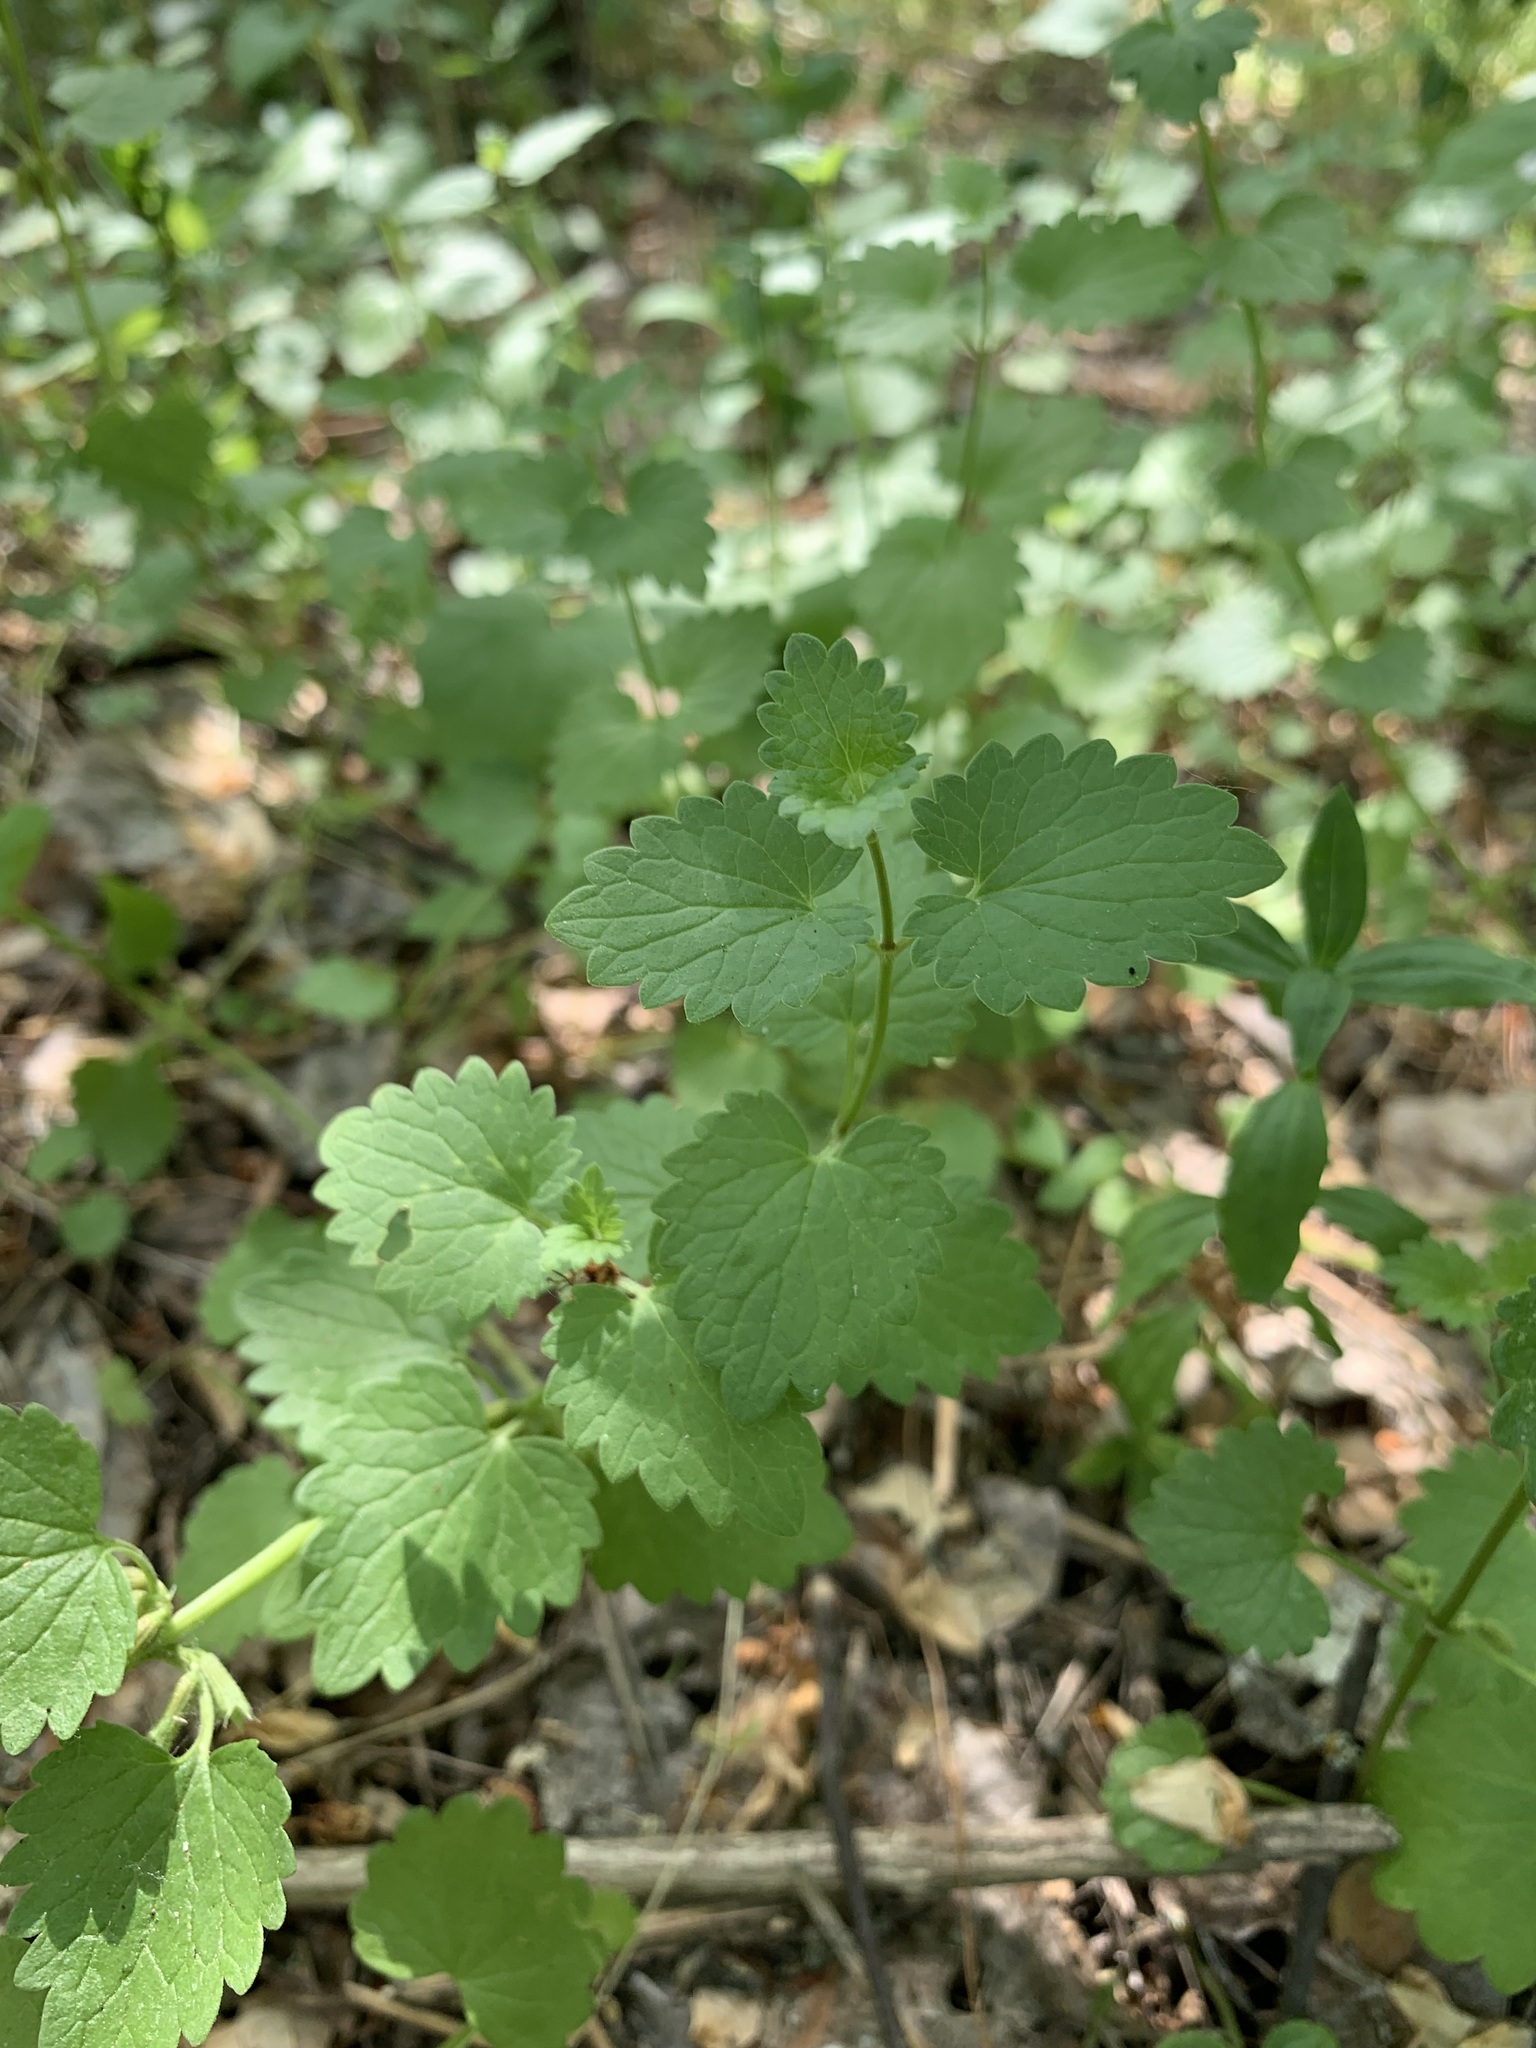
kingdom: Plantae
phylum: Tracheophyta
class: Magnoliopsida
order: Lamiales
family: Lamiaceae
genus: Glechoma
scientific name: Glechoma hederacea
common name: Ground ivy
